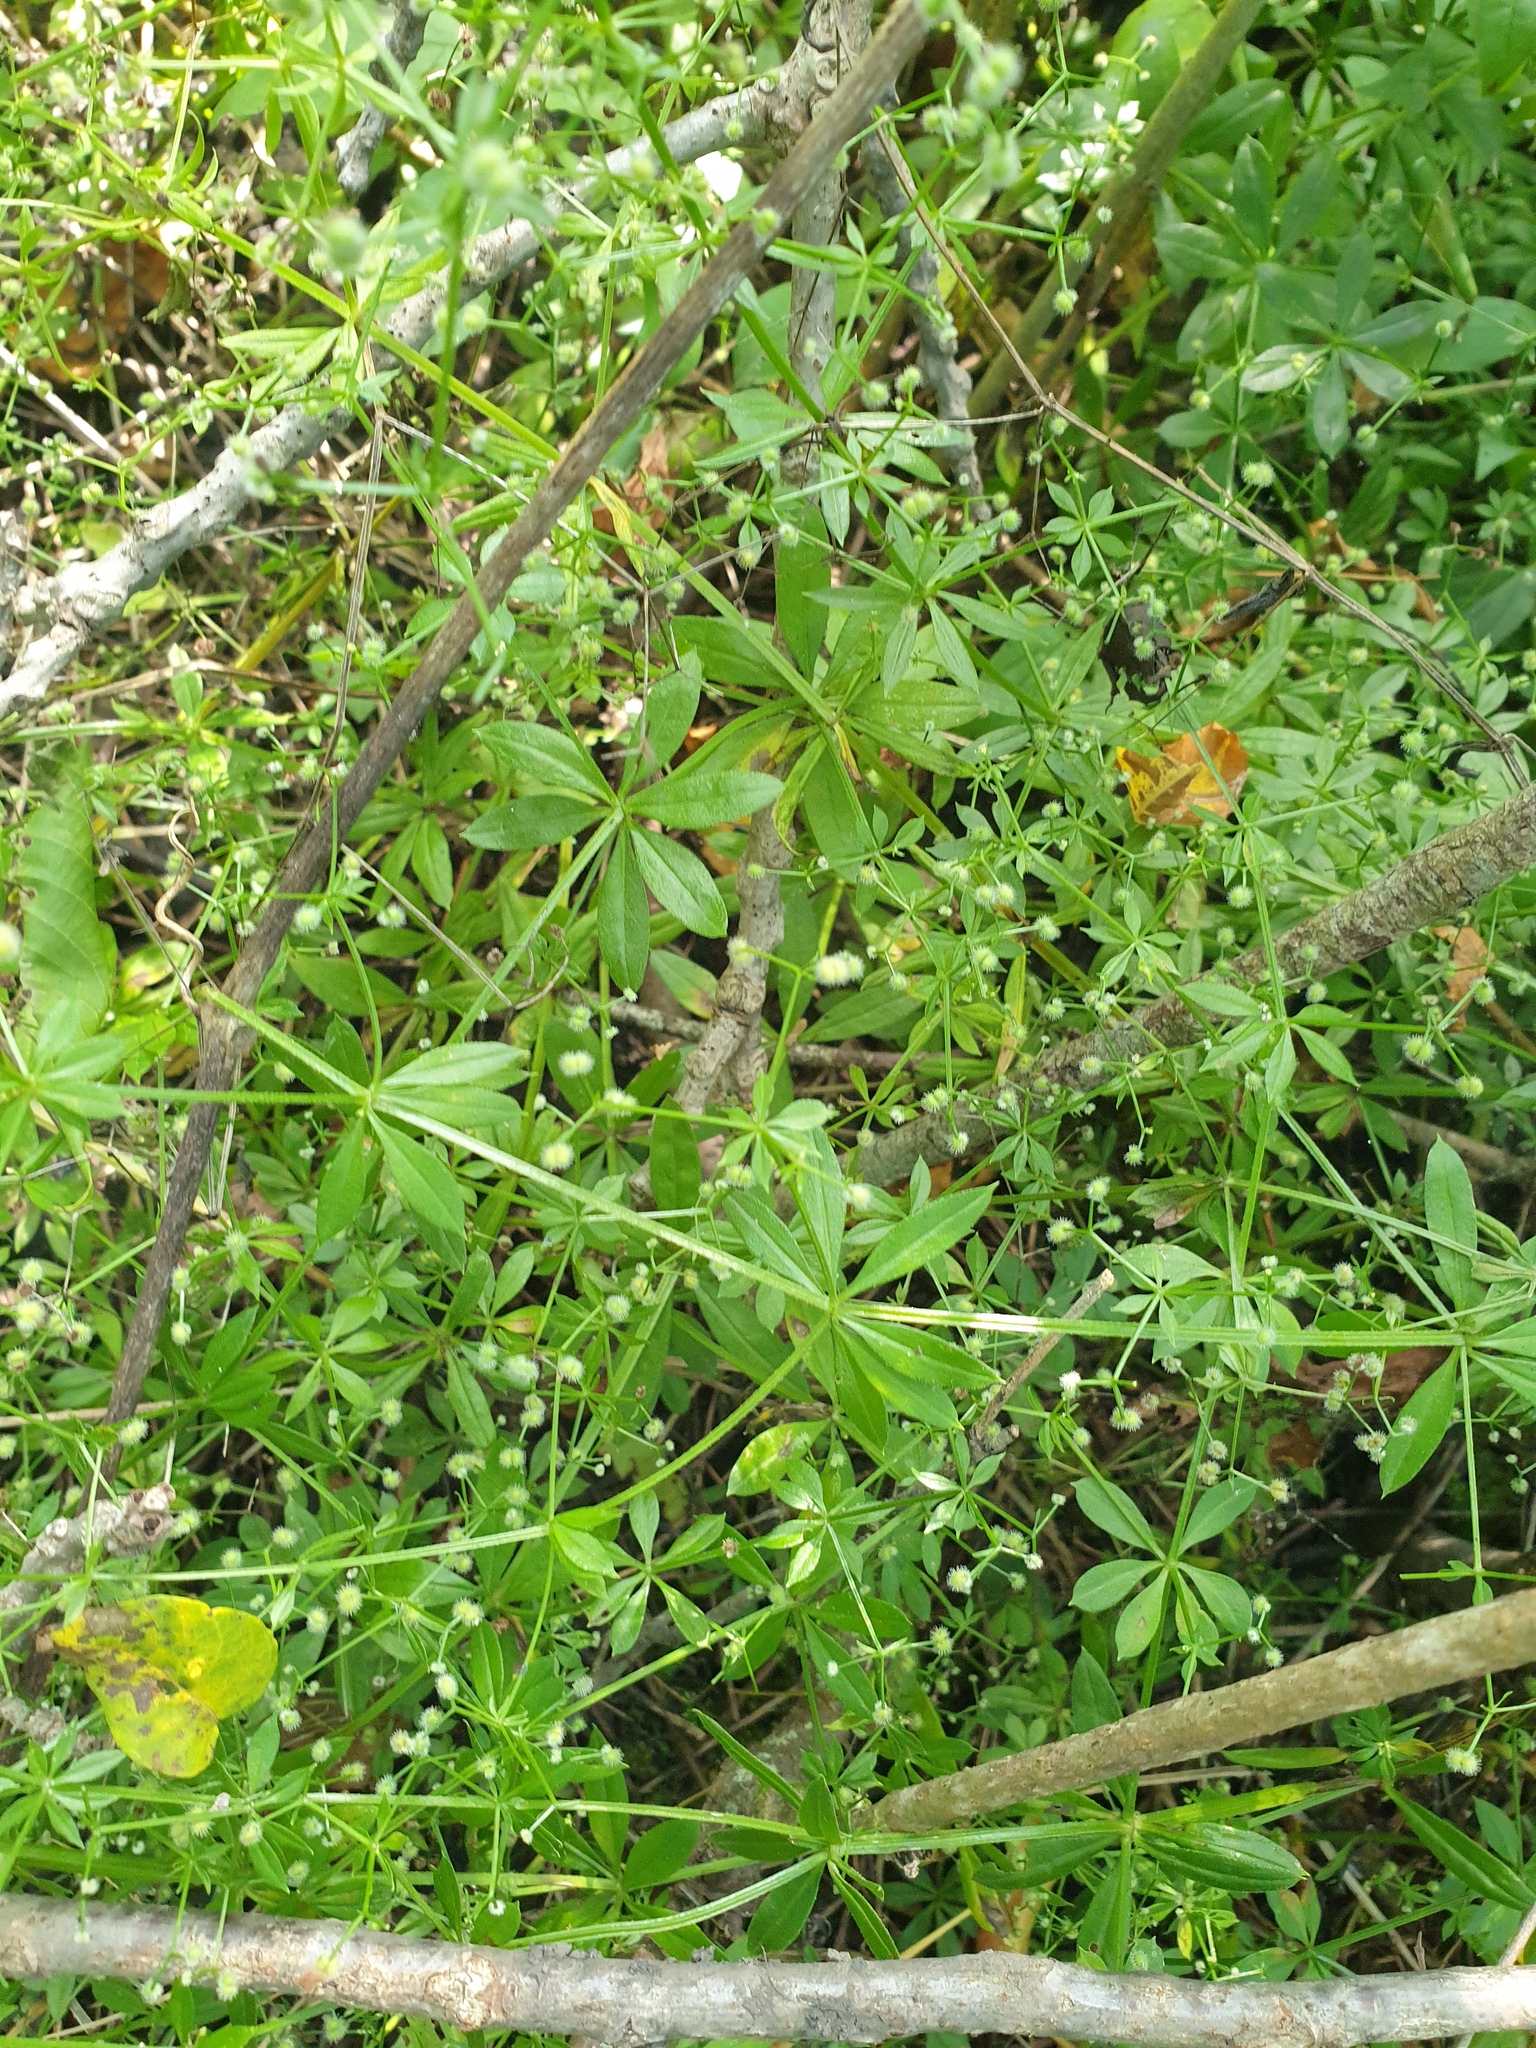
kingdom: Plantae
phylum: Tracheophyta
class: Magnoliopsida
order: Gentianales
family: Rubiaceae
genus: Galium
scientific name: Galium triflorum
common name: Fragrant bedstraw
